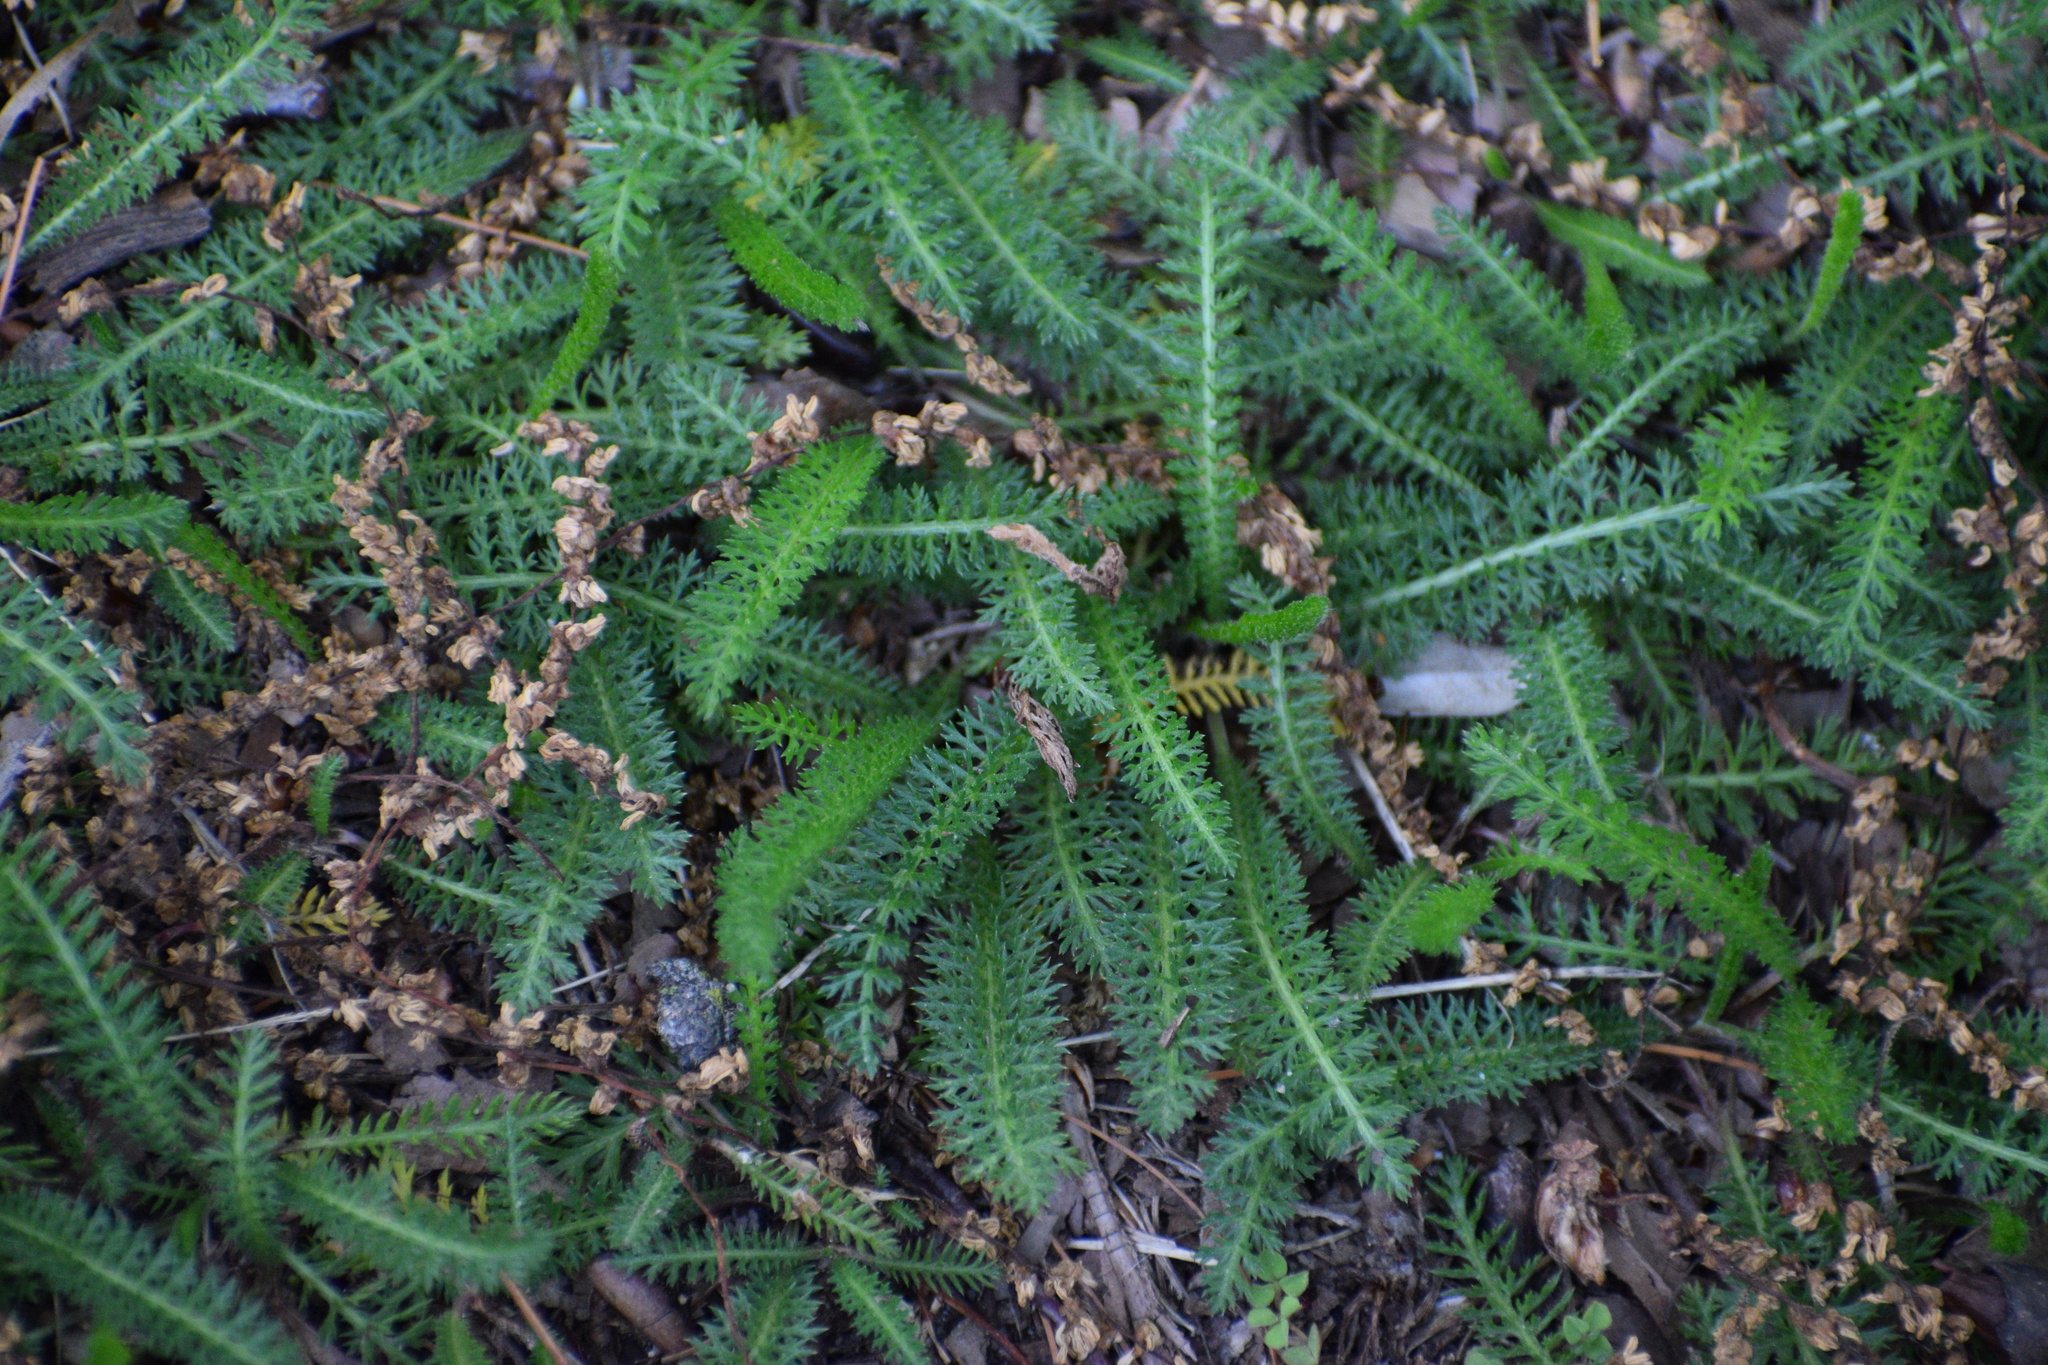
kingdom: Plantae
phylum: Tracheophyta
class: Magnoliopsida
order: Asterales
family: Asteraceae
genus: Achillea
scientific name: Achillea millefolium
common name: Yarrow
